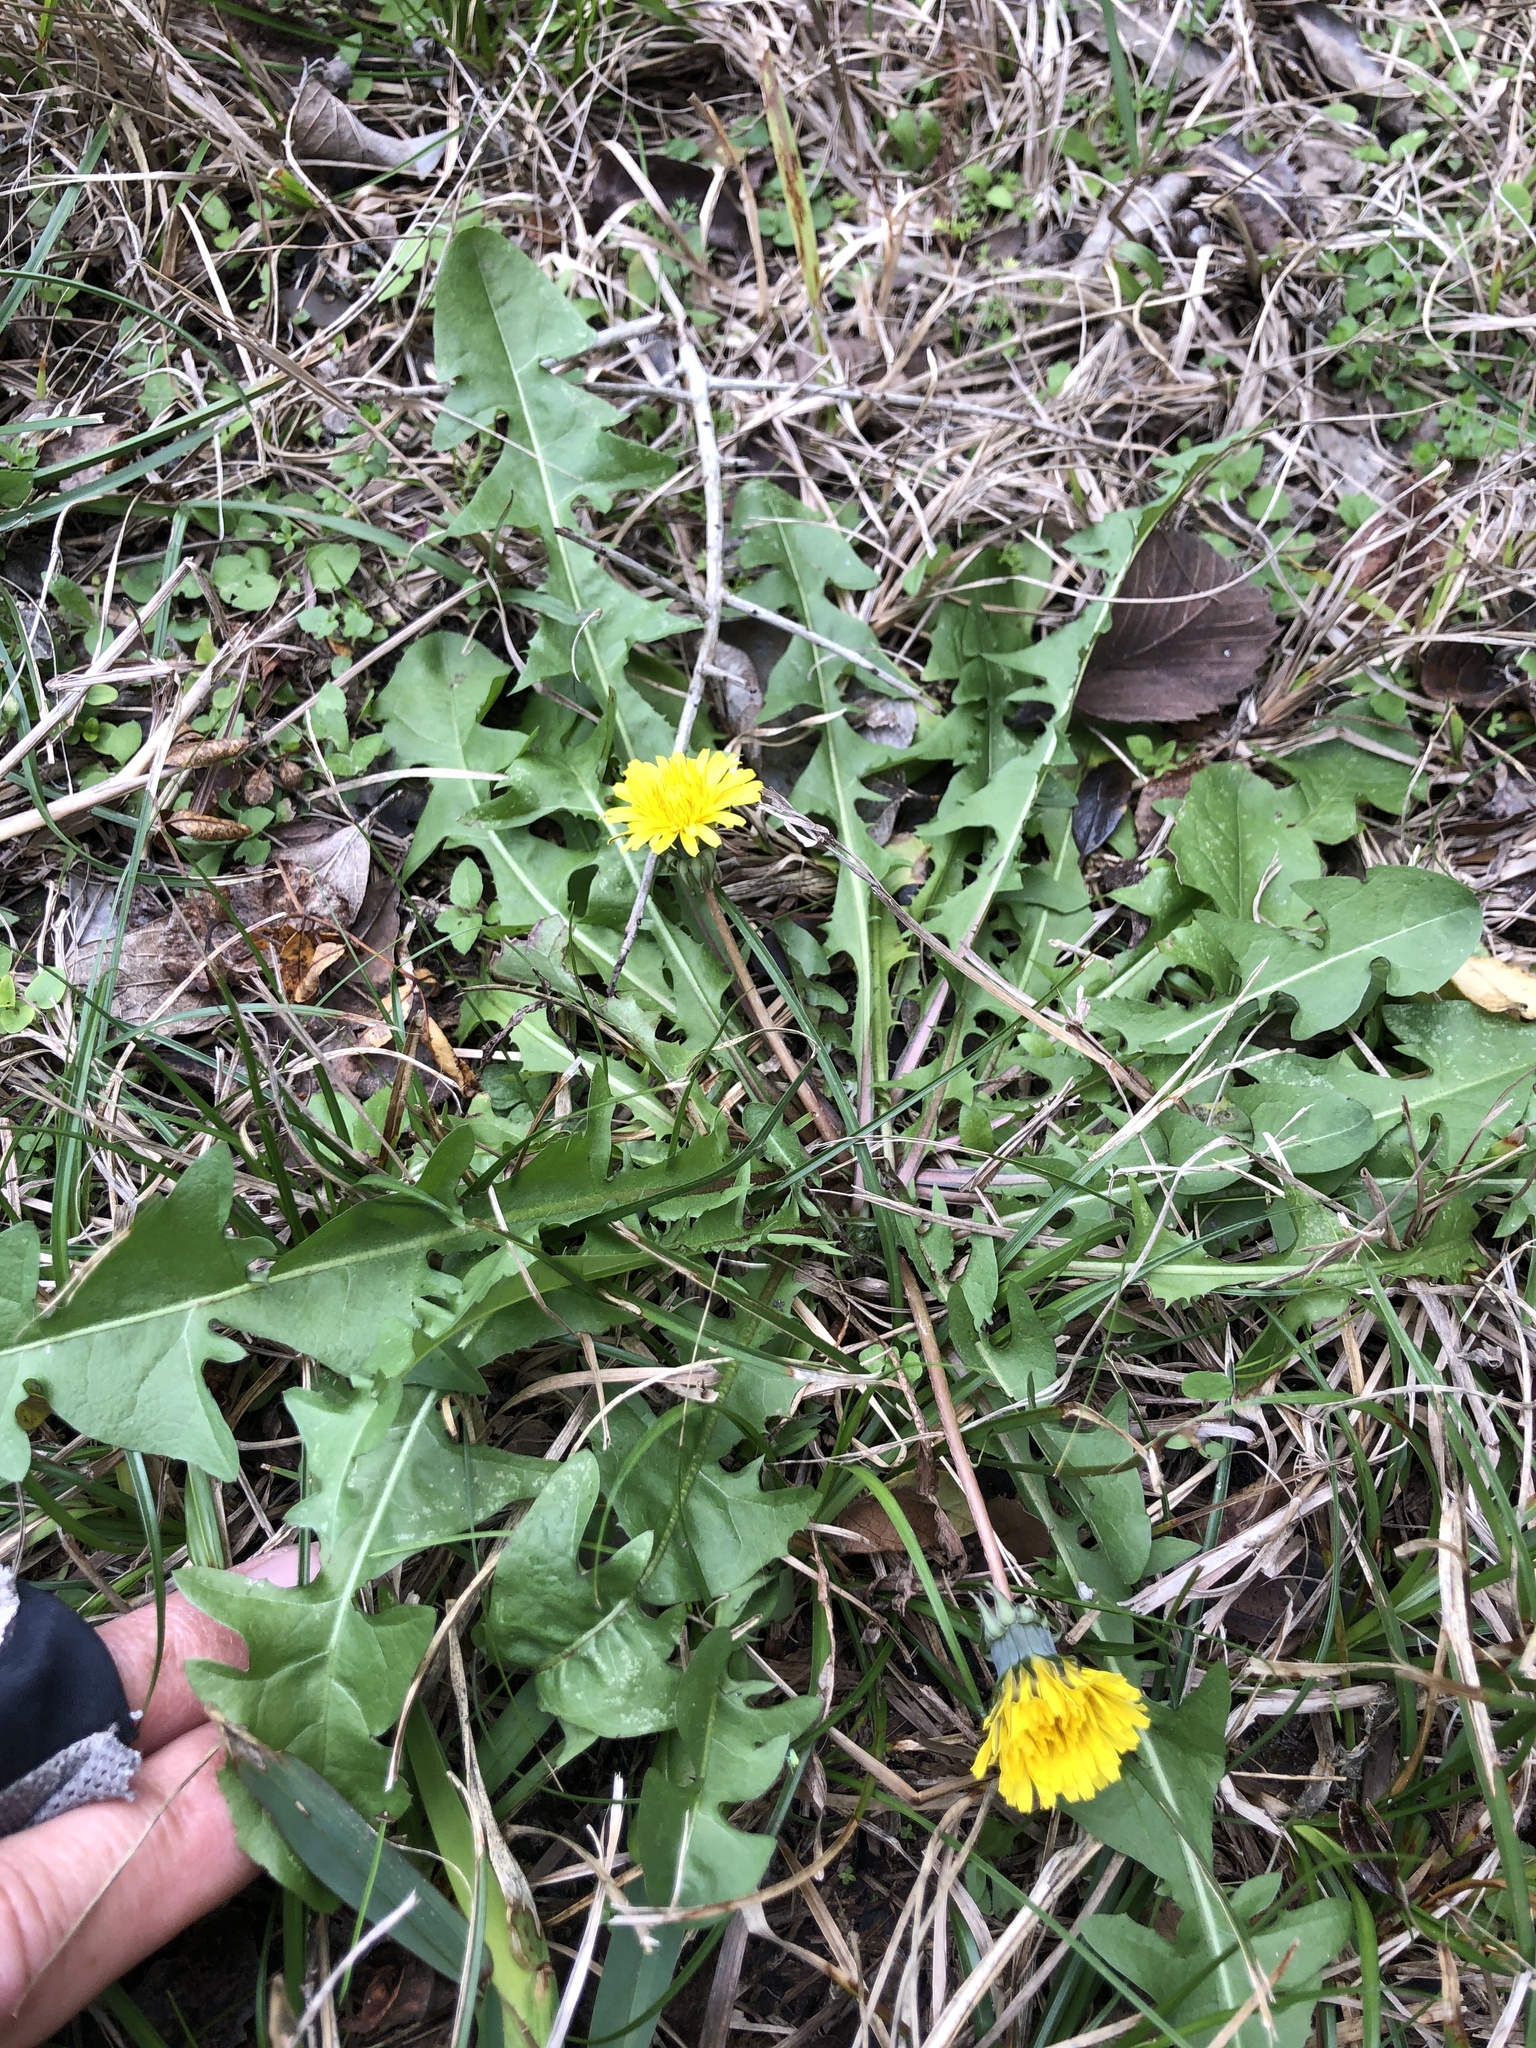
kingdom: Plantae
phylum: Tracheophyta
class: Magnoliopsida
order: Asterales
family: Asteraceae
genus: Taraxacum
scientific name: Taraxacum officinale
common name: Common dandelion
